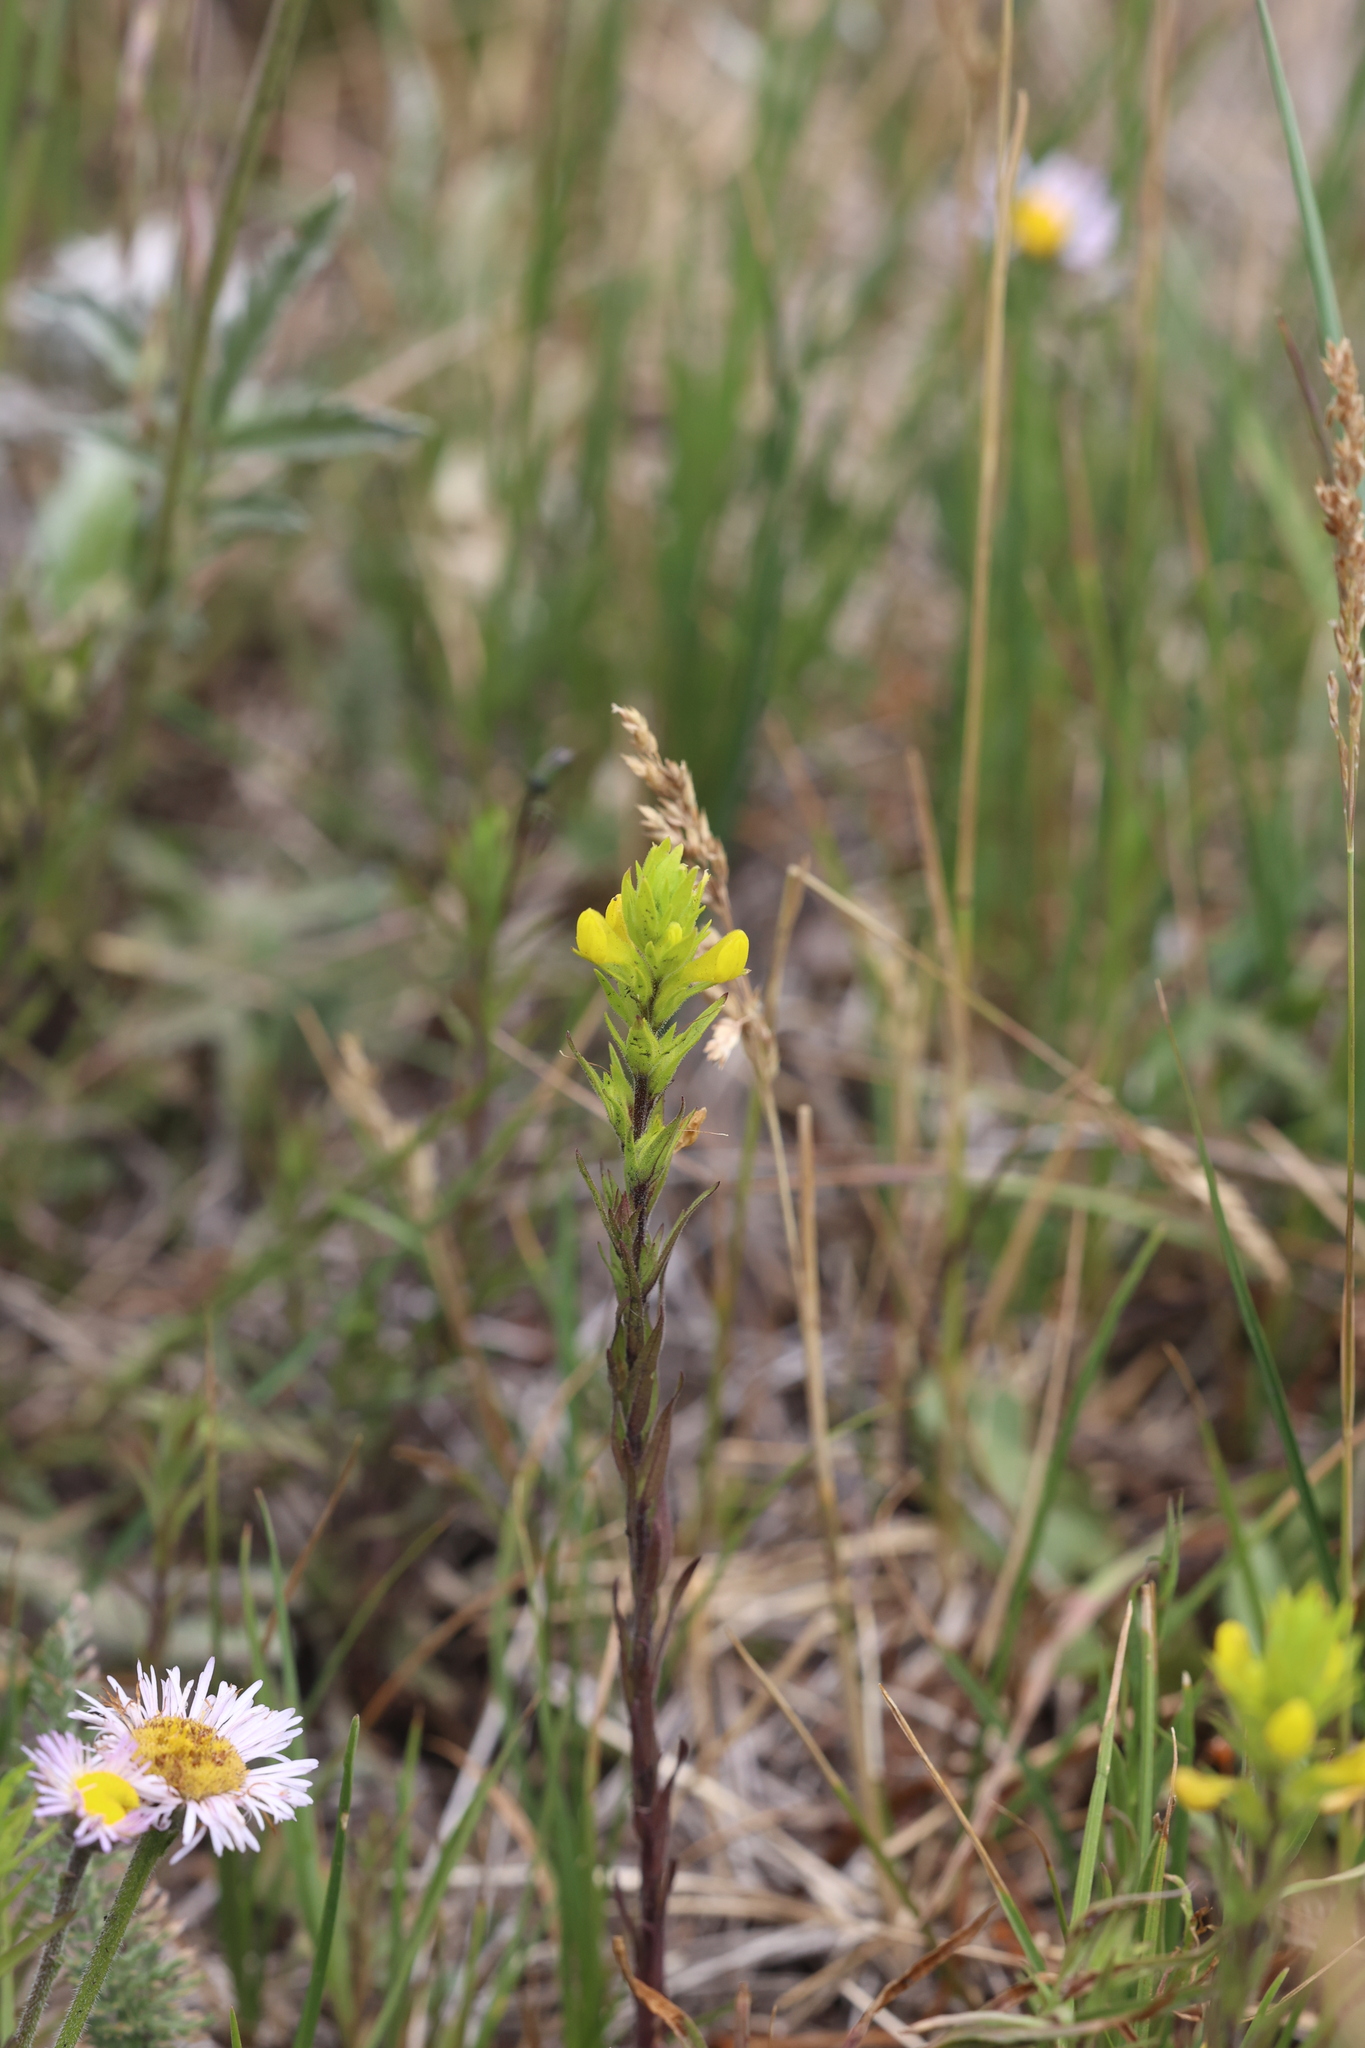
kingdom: Plantae
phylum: Tracheophyta
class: Magnoliopsida
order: Lamiales
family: Orobanchaceae
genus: Orthocarpus
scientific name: Orthocarpus luteus
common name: Golden-tongue owl's-clover
